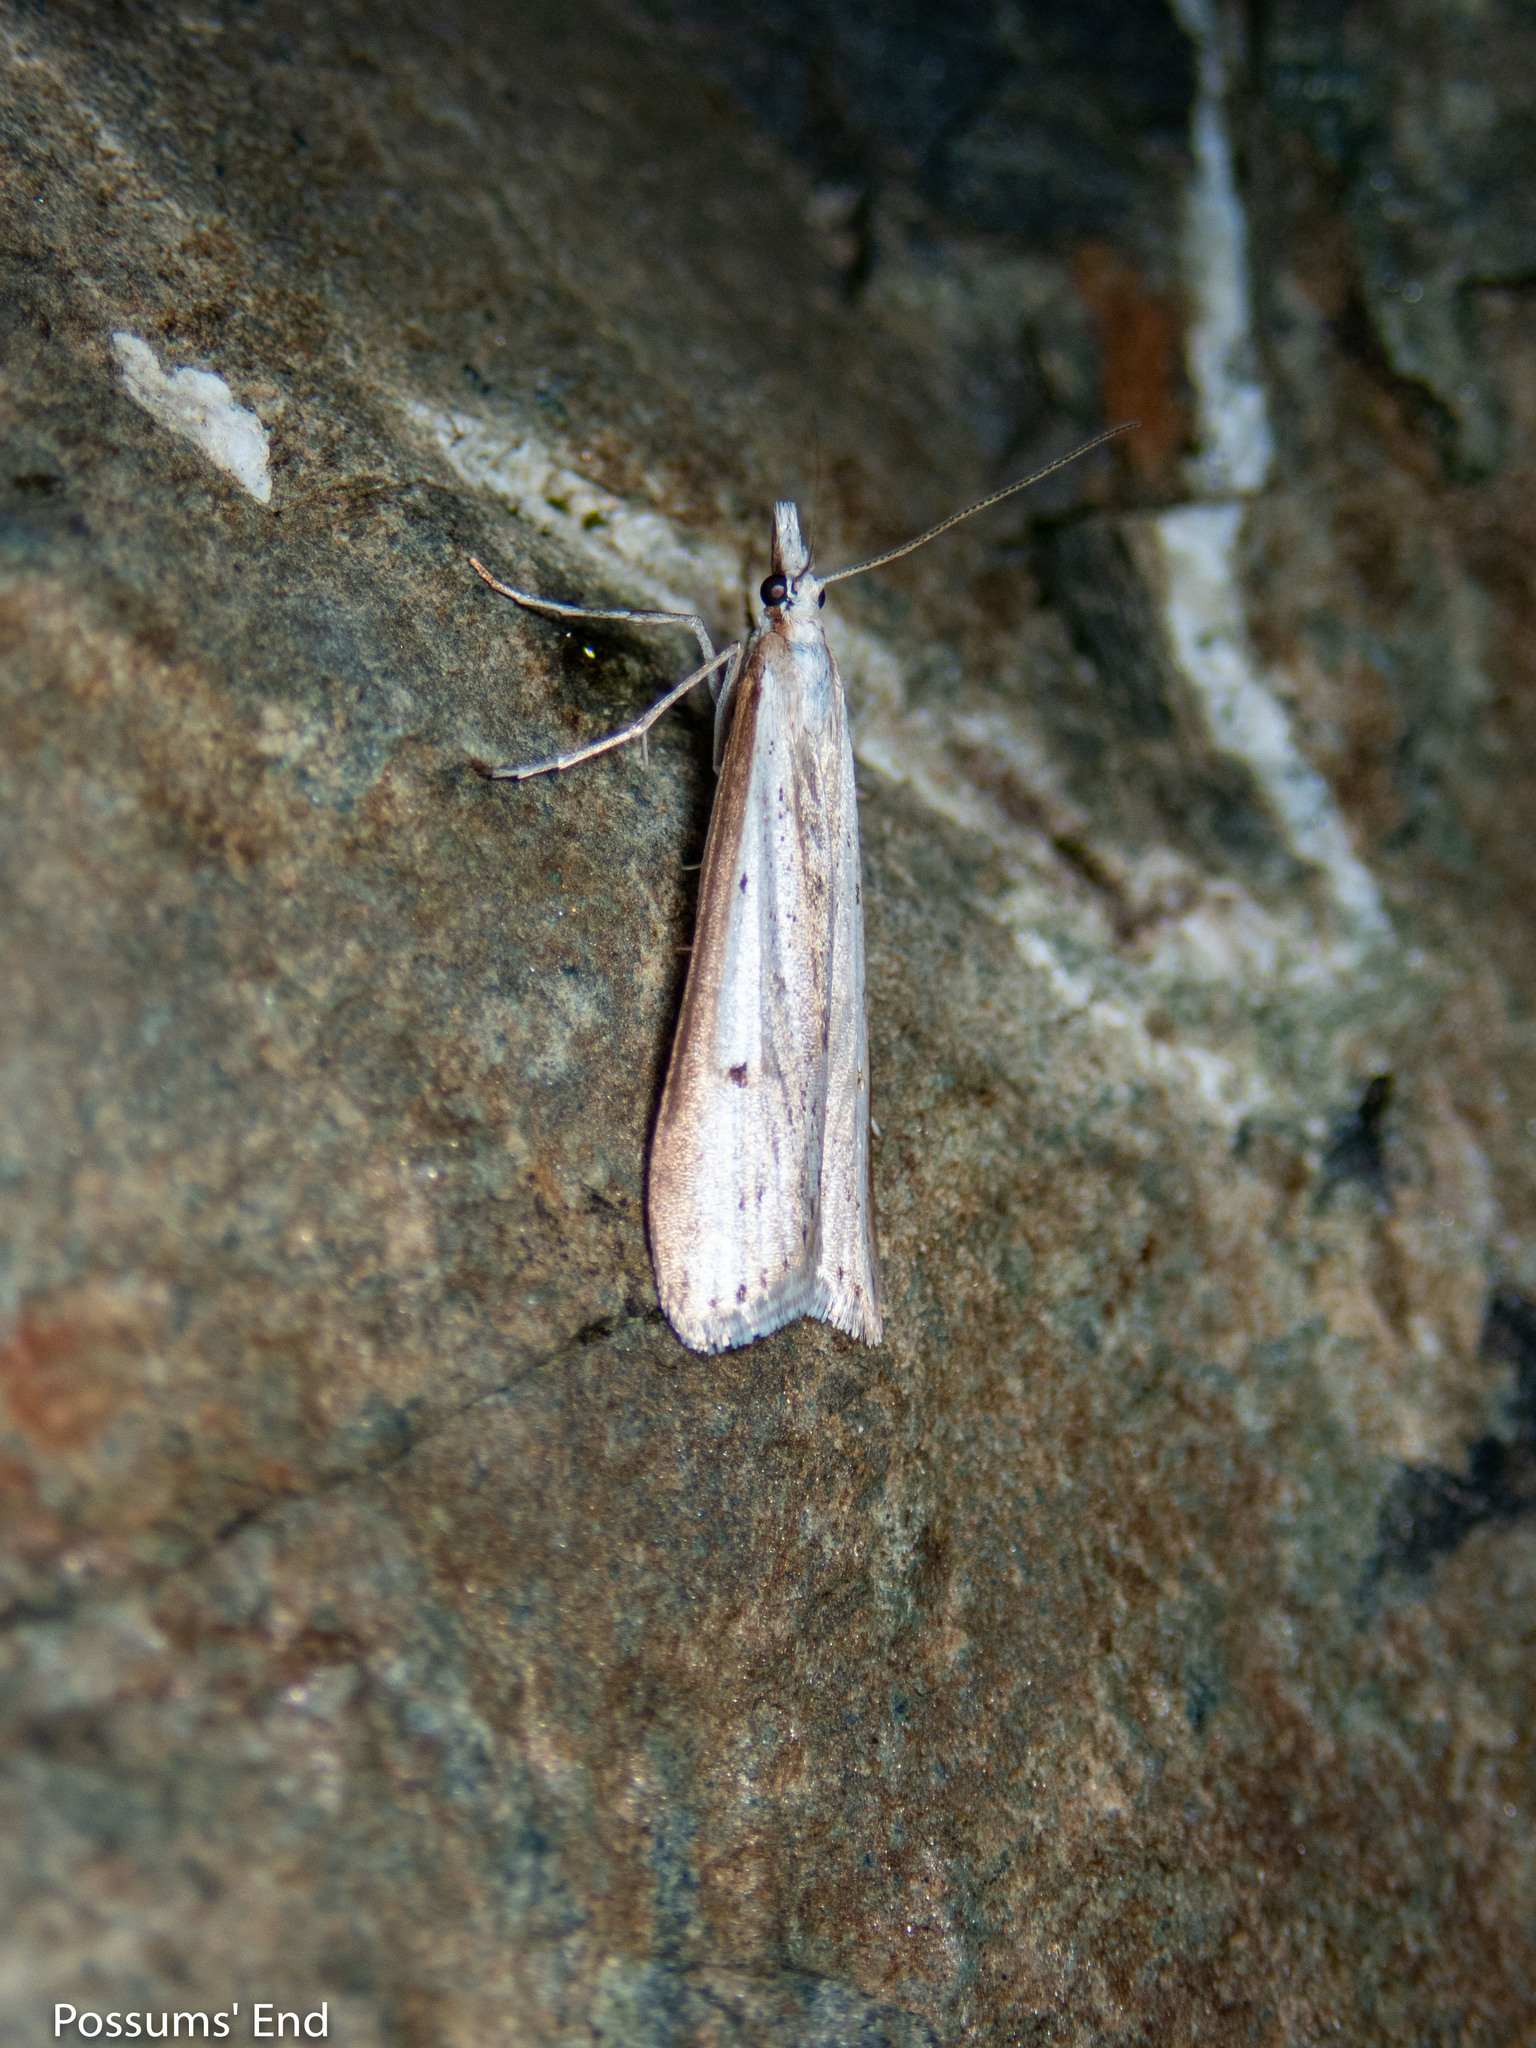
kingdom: Animalia
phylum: Arthropoda
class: Insecta
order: Lepidoptera
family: Crambidae
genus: Scoparia
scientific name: Scoparia niphospora
